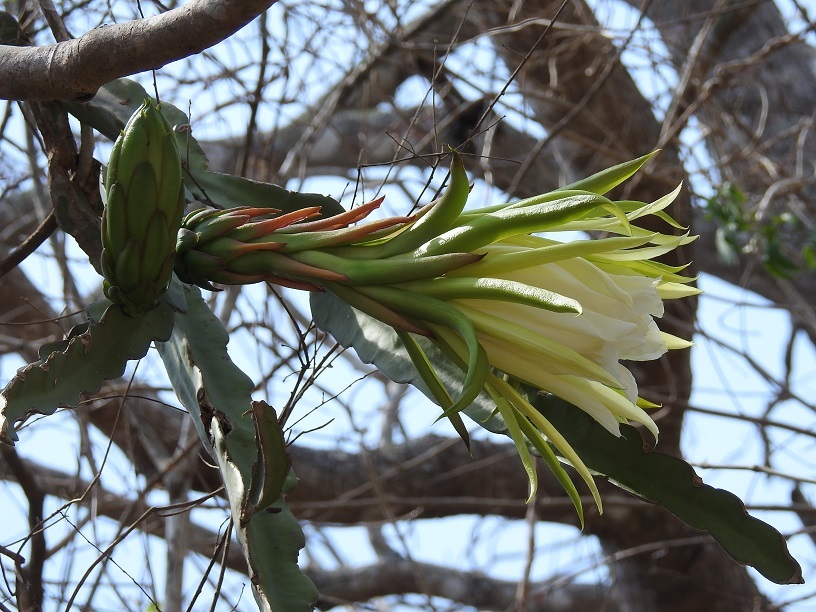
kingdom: Plantae
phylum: Tracheophyta
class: Magnoliopsida
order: Caryophyllales
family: Cactaceae
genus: Selenicereus
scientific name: Selenicereus ocamponis
